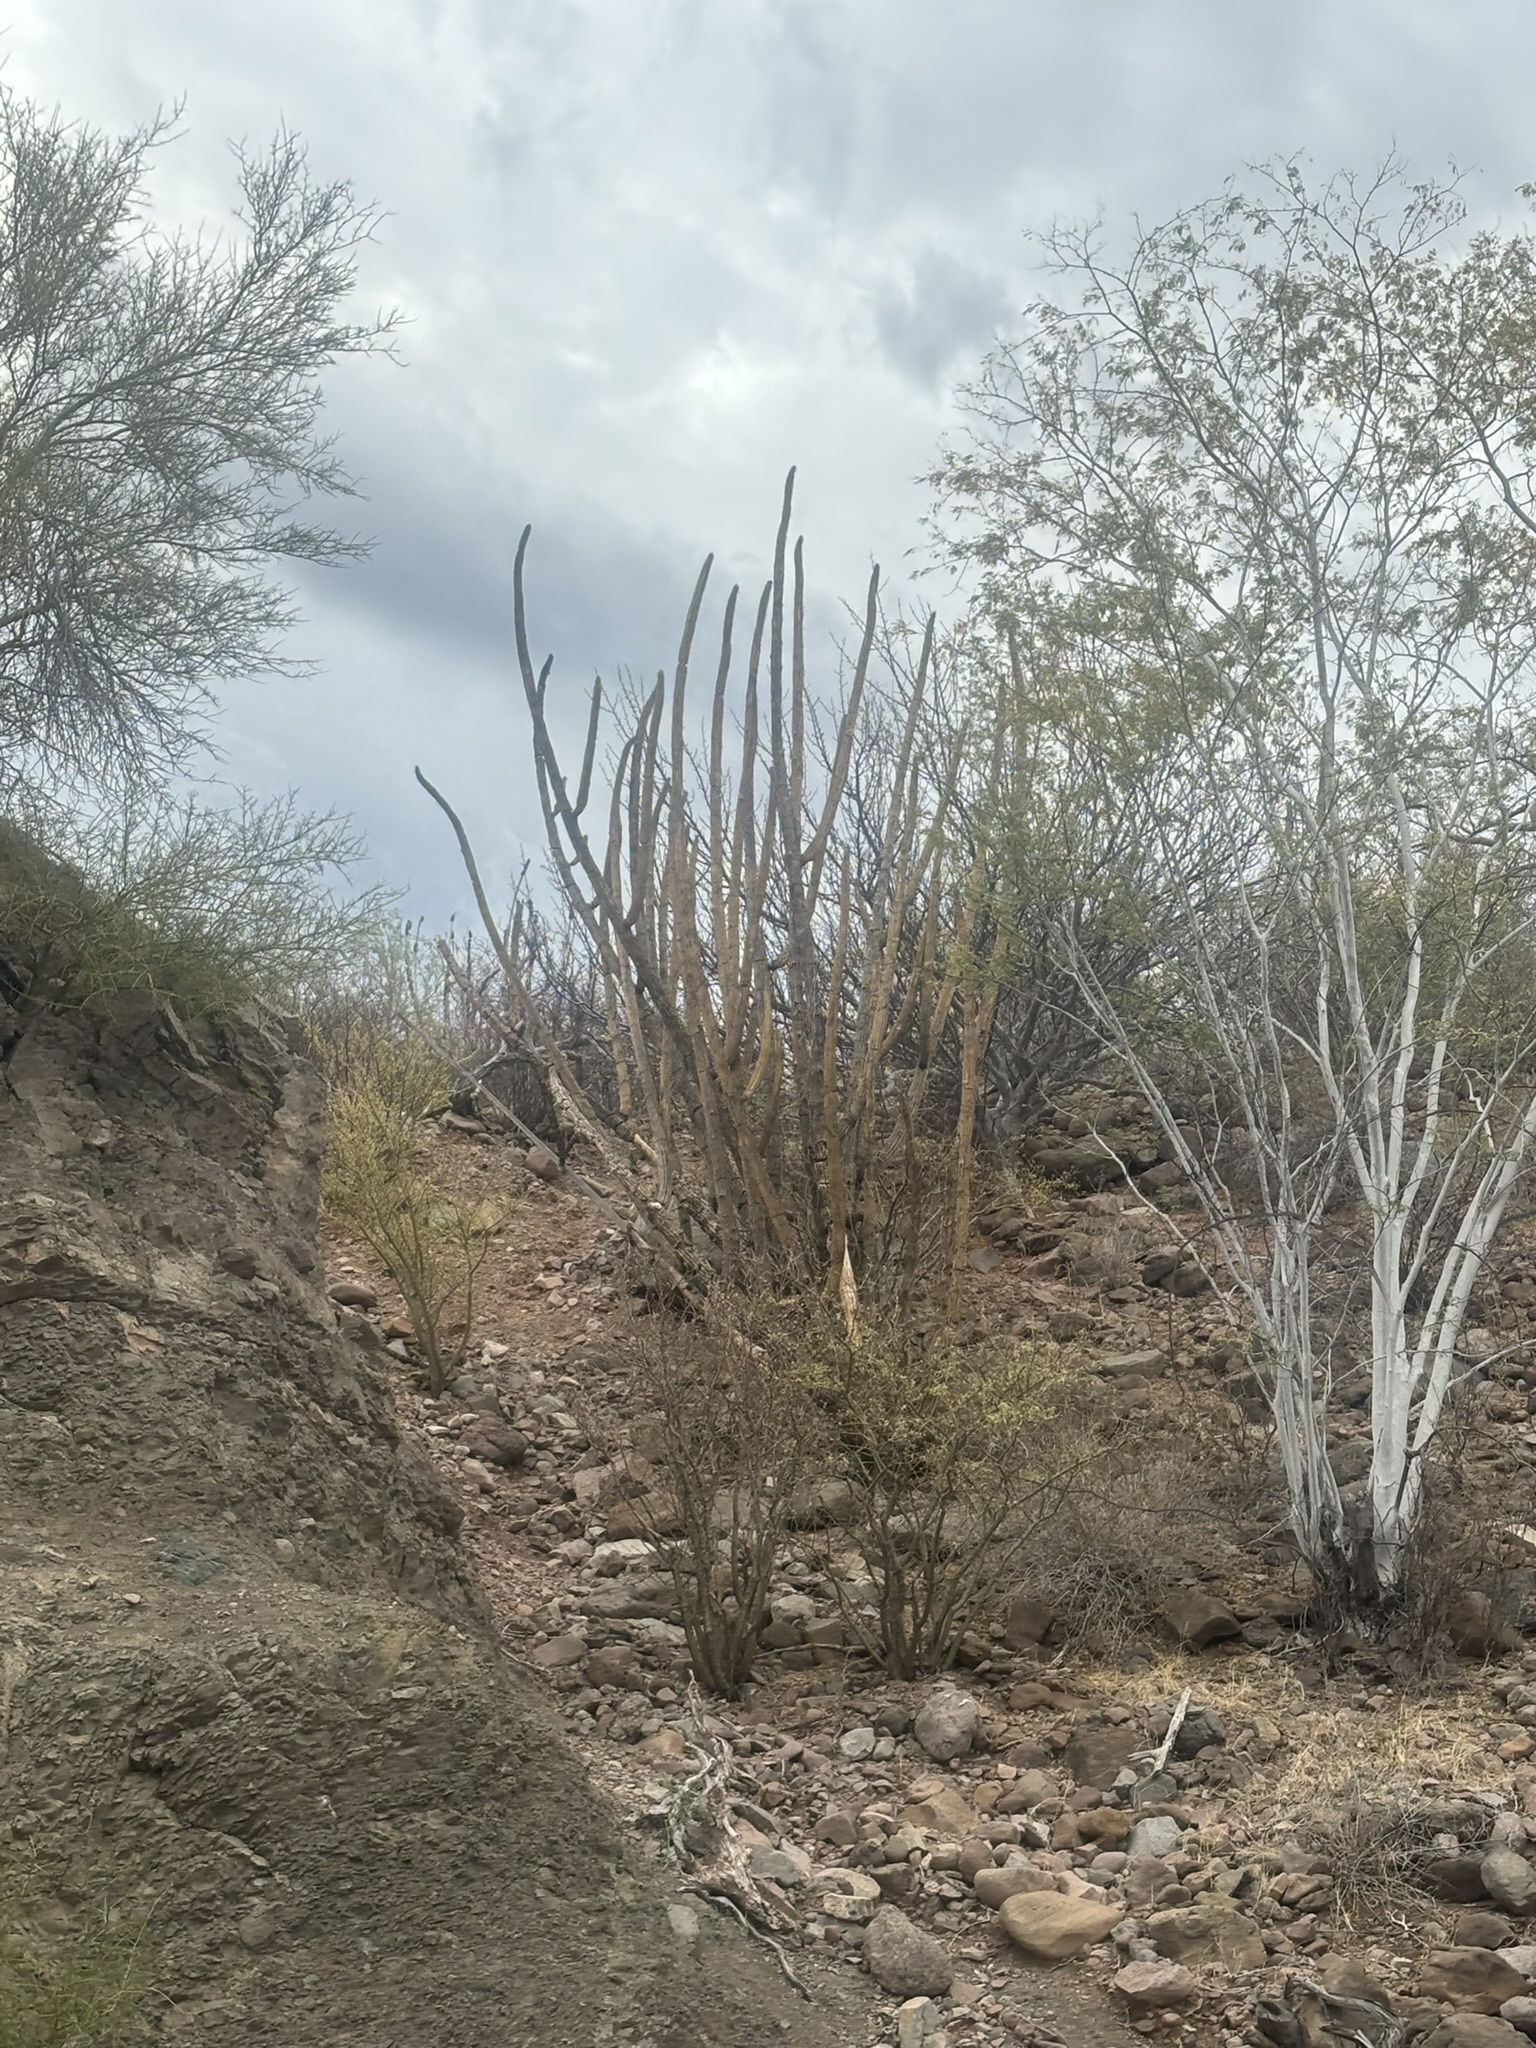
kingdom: Plantae
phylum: Tracheophyta
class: Magnoliopsida
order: Caryophyllales
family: Cactaceae
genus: Stenocereus
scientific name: Stenocereus thurberi
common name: Organ pipe cactus
